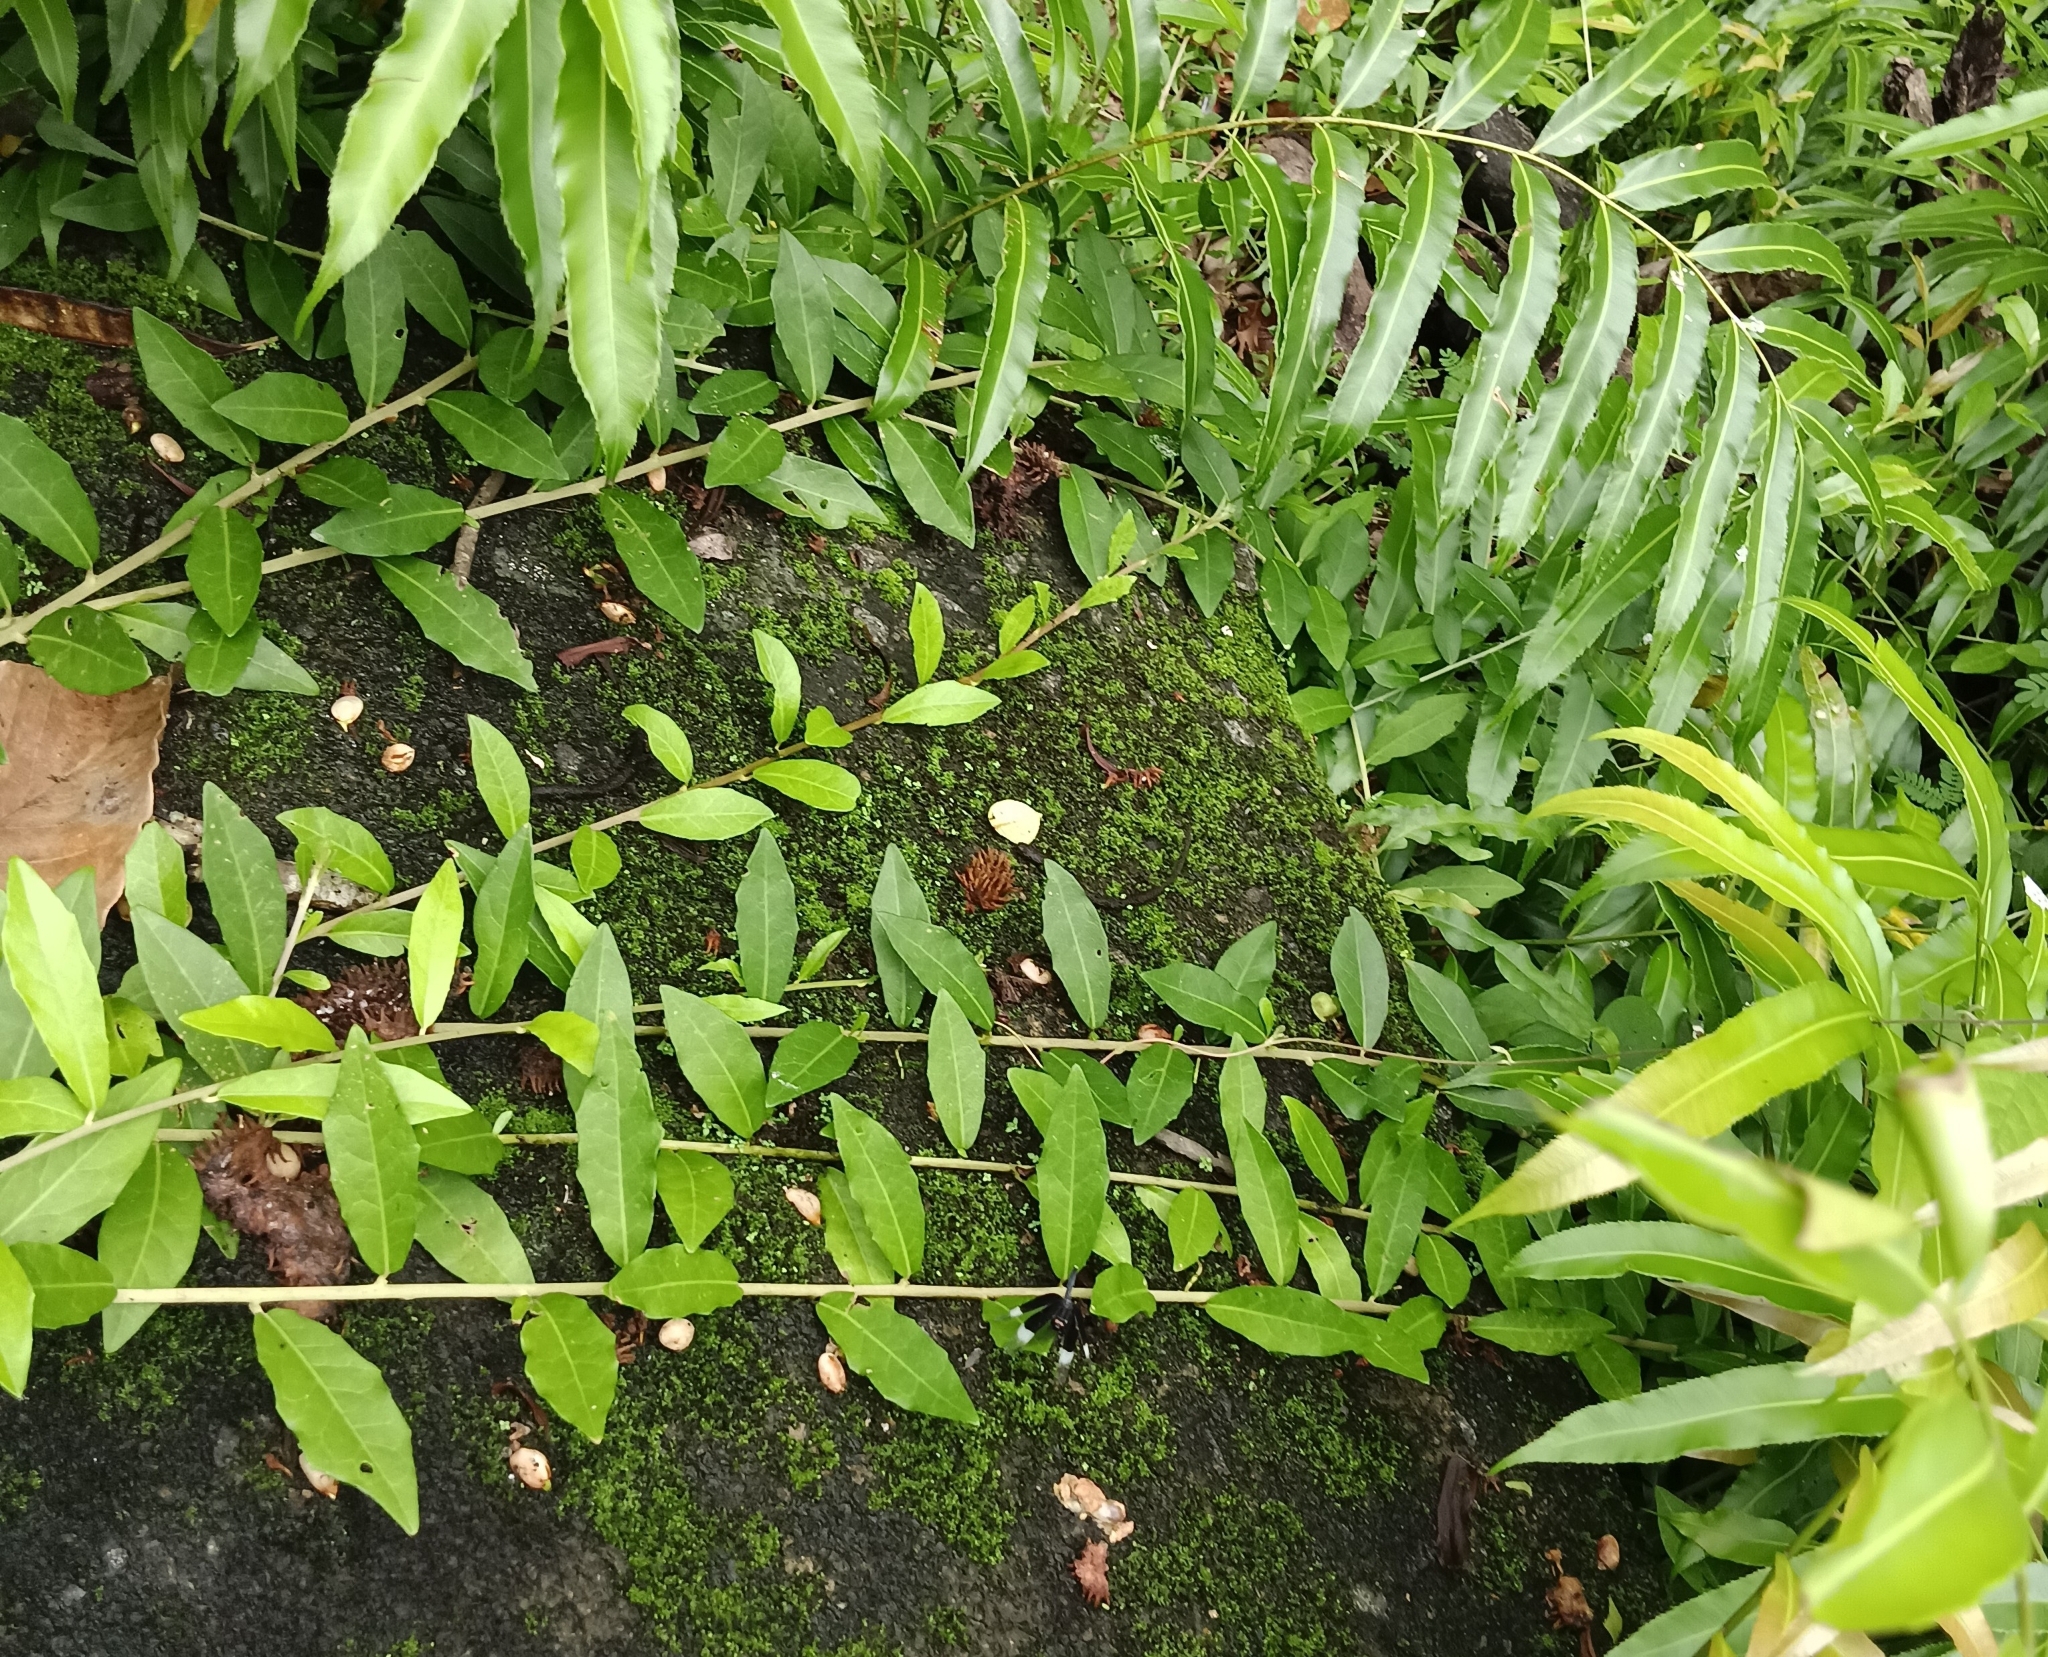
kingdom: Plantae
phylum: Tracheophyta
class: Magnoliopsida
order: Asterales
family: Asteraceae
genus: Tarlmounia
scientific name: Tarlmounia elliptica
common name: Kheua sa lot
